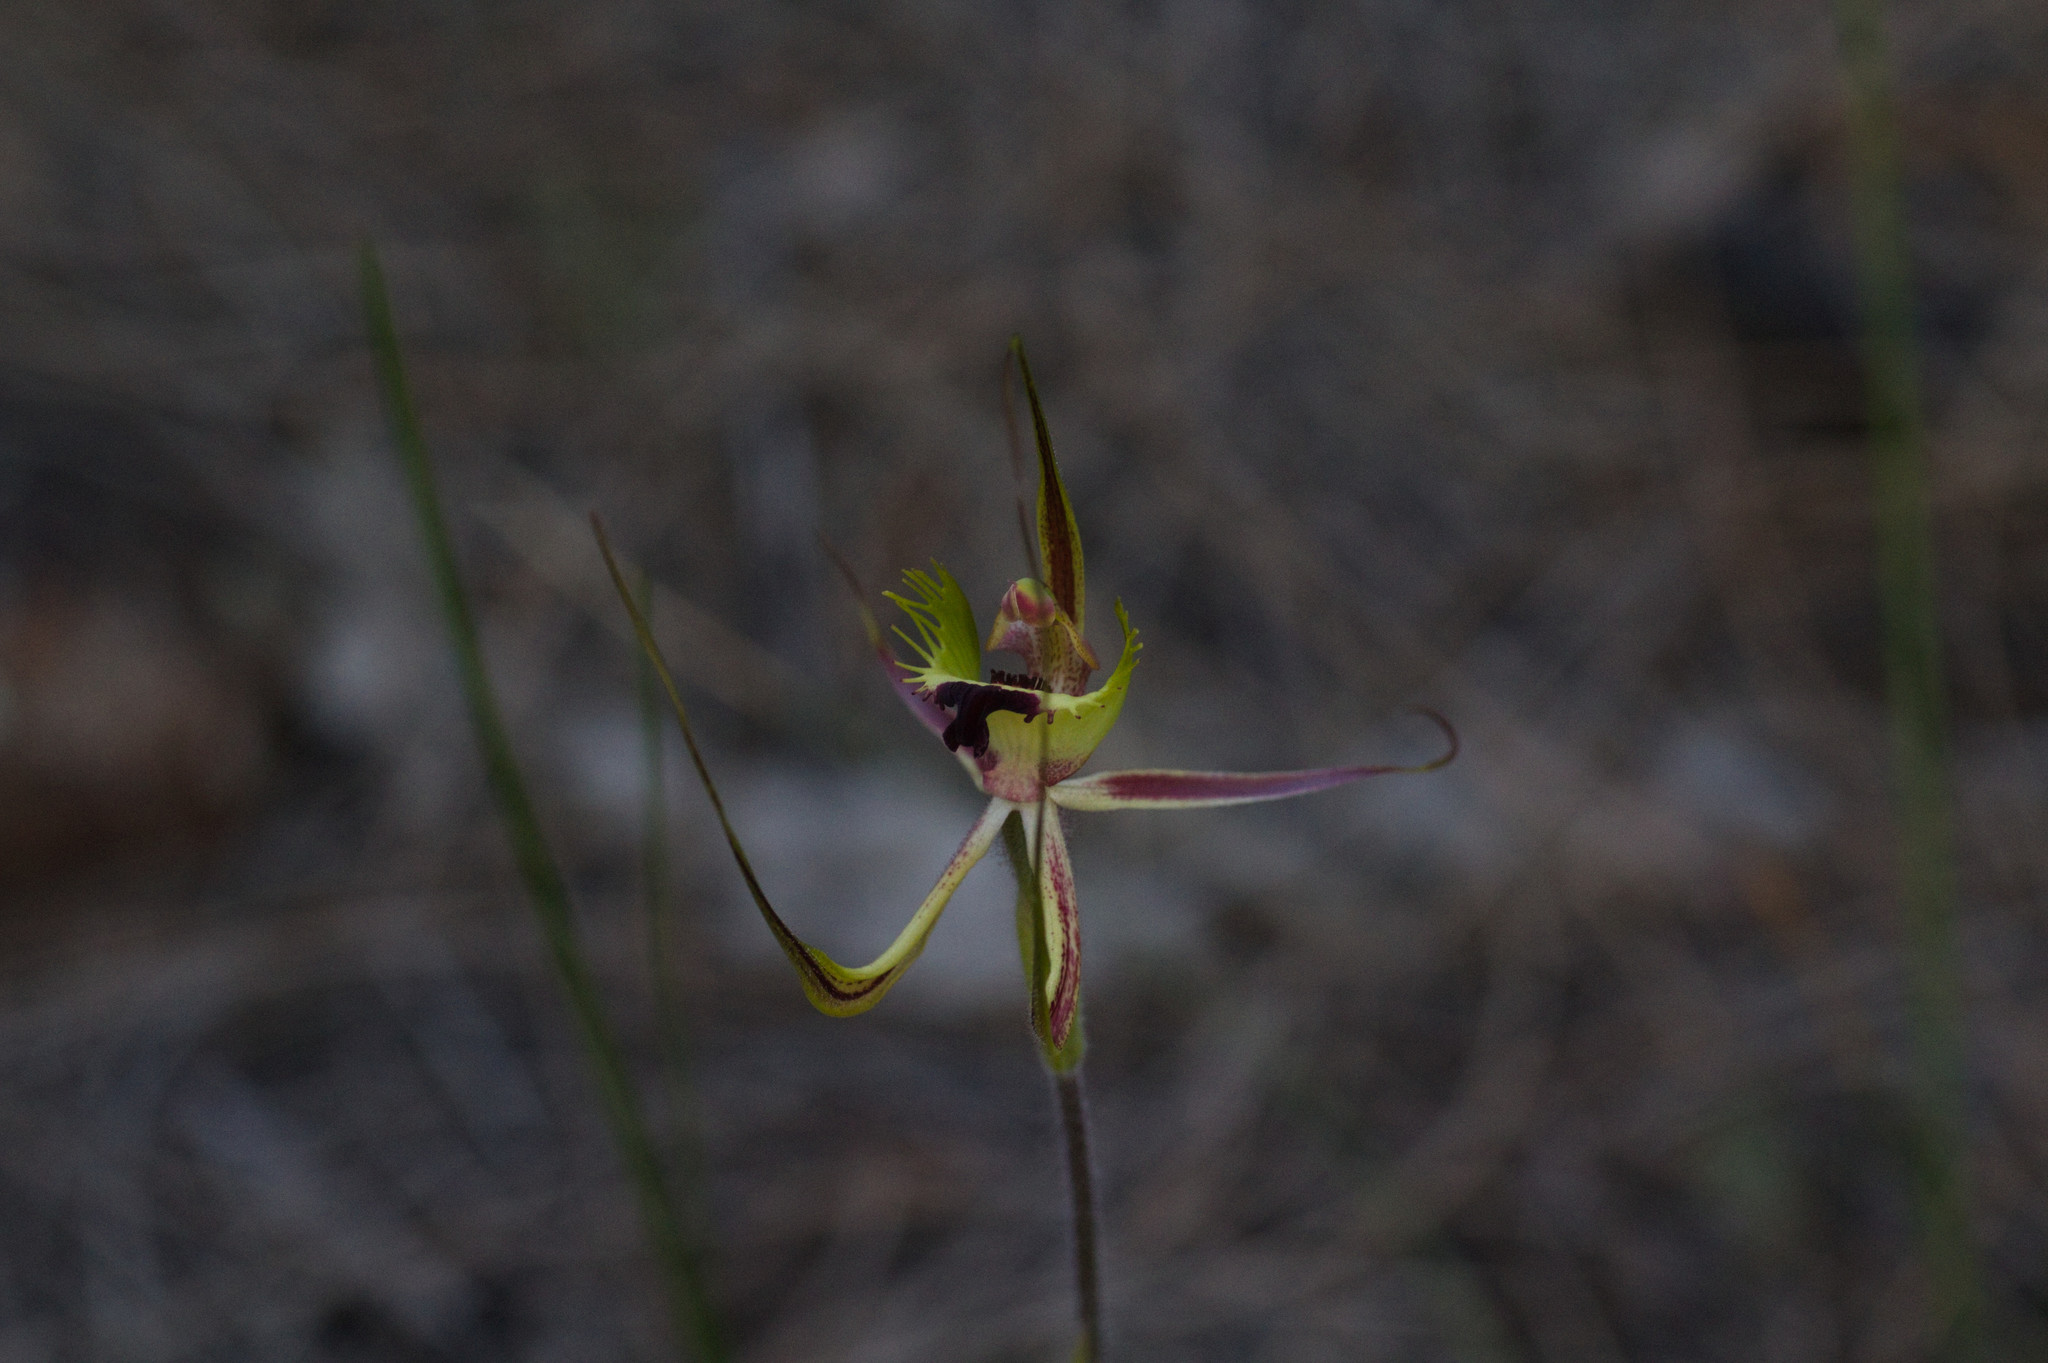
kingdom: Plantae
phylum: Tracheophyta
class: Liliopsida
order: Asparagales
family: Orchidaceae
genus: Caladenia
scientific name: Caladenia falcata
